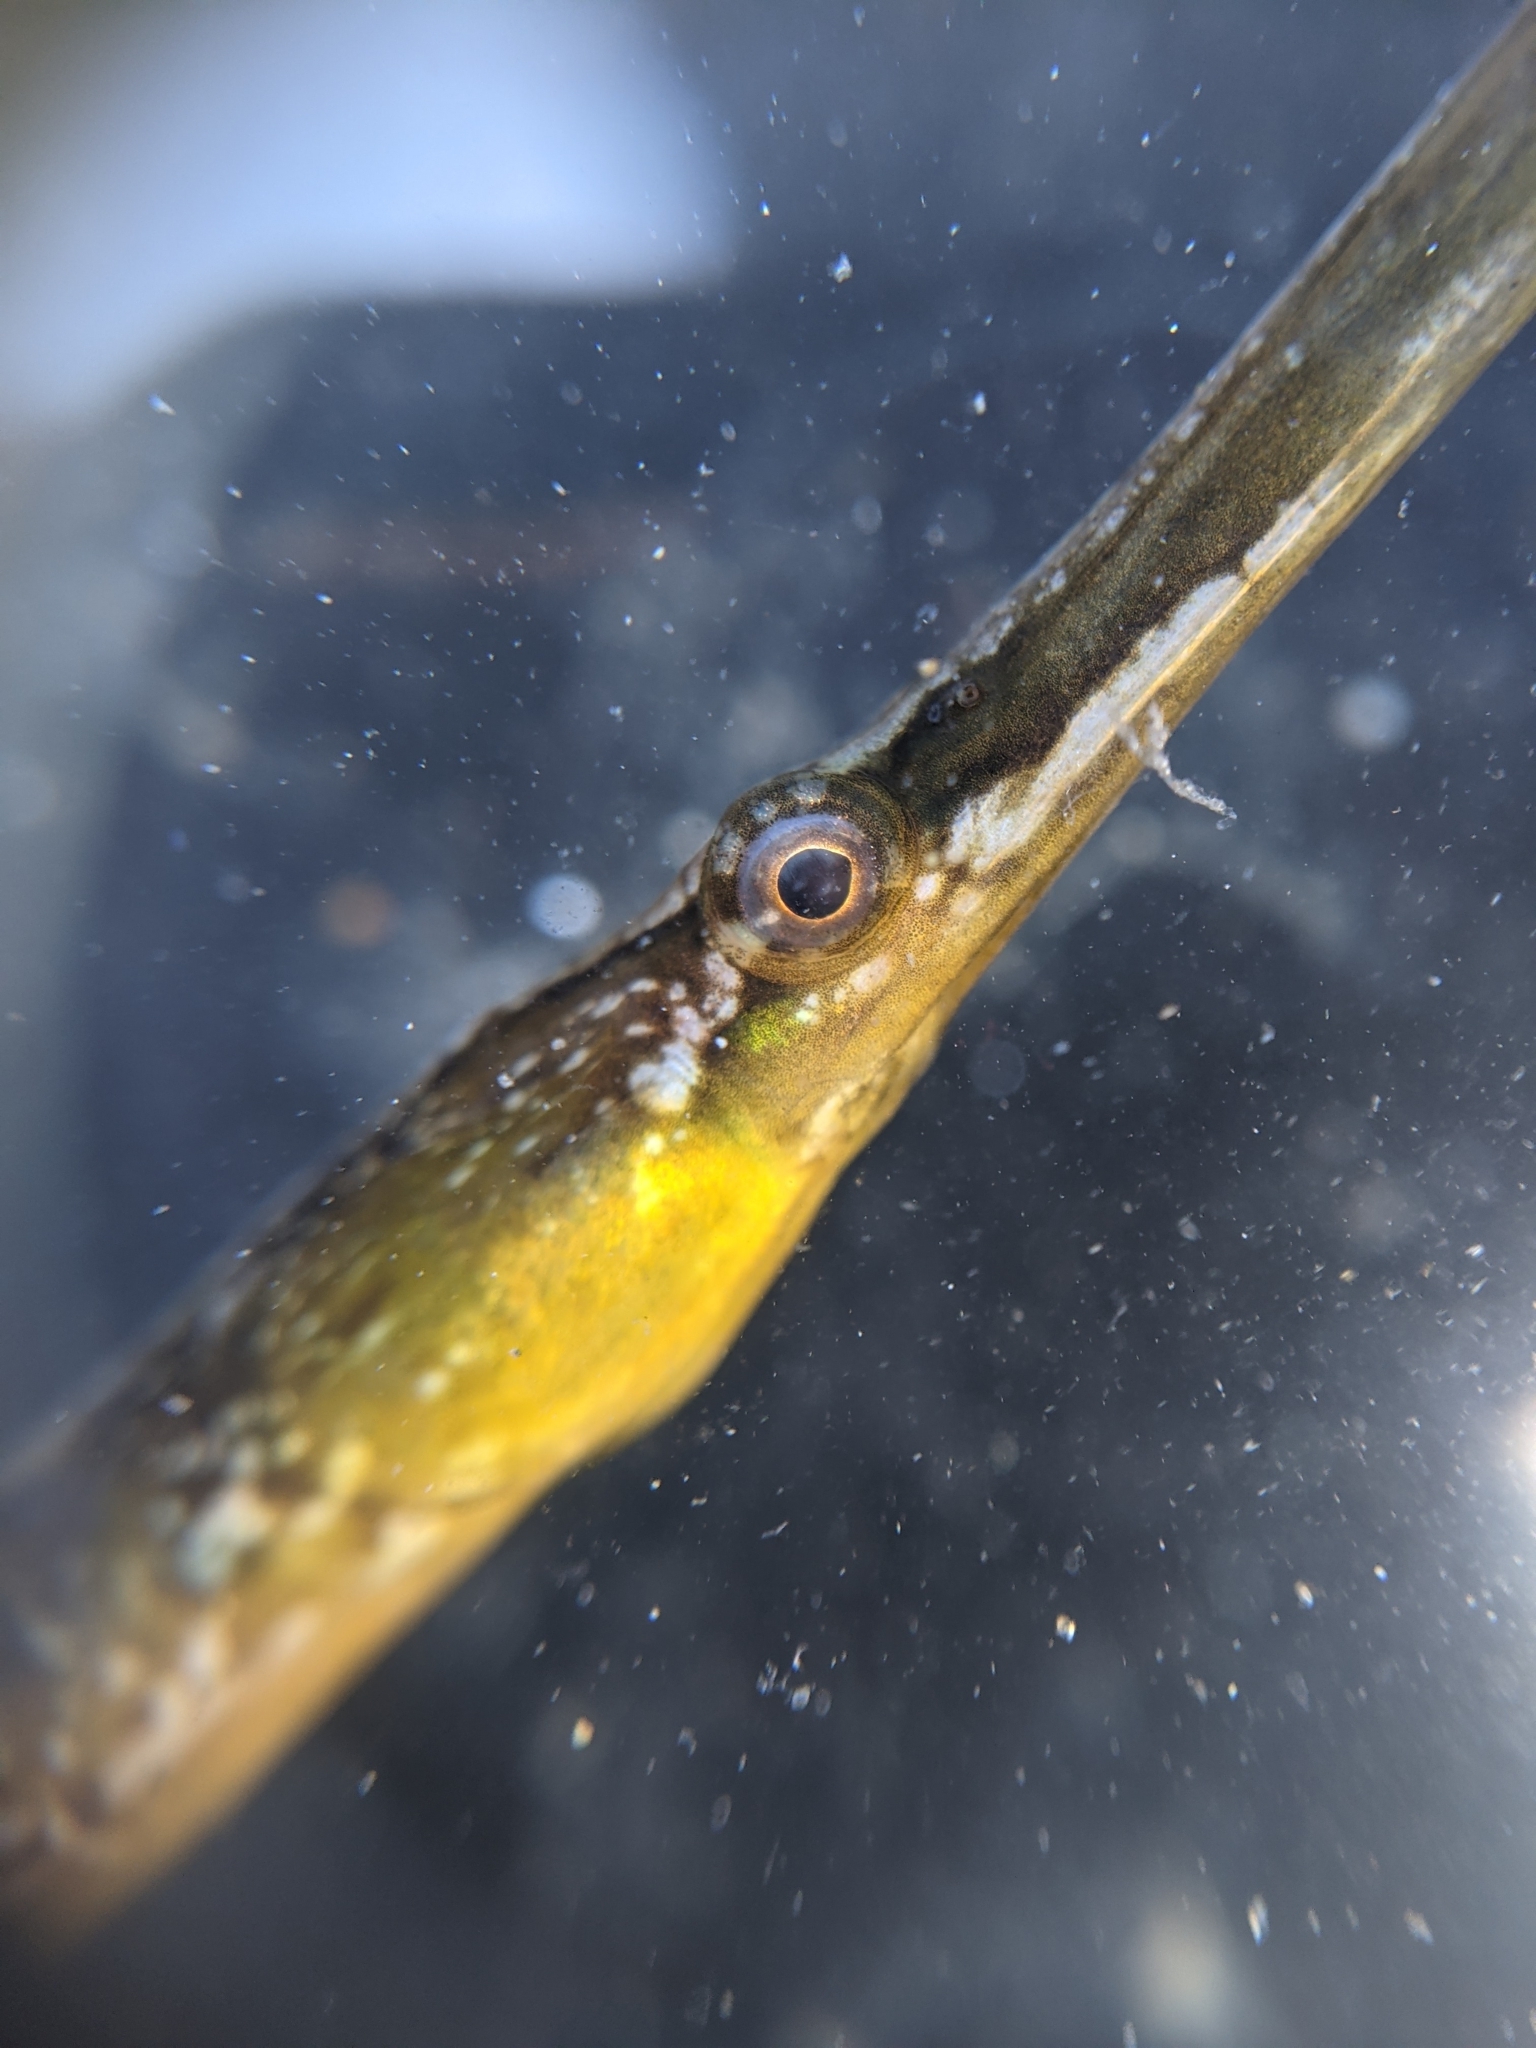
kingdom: Animalia
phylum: Chordata
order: Syngnathiformes
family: Syngnathidae
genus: Syngnathus
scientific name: Syngnathus californiensis
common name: Great pipefish
